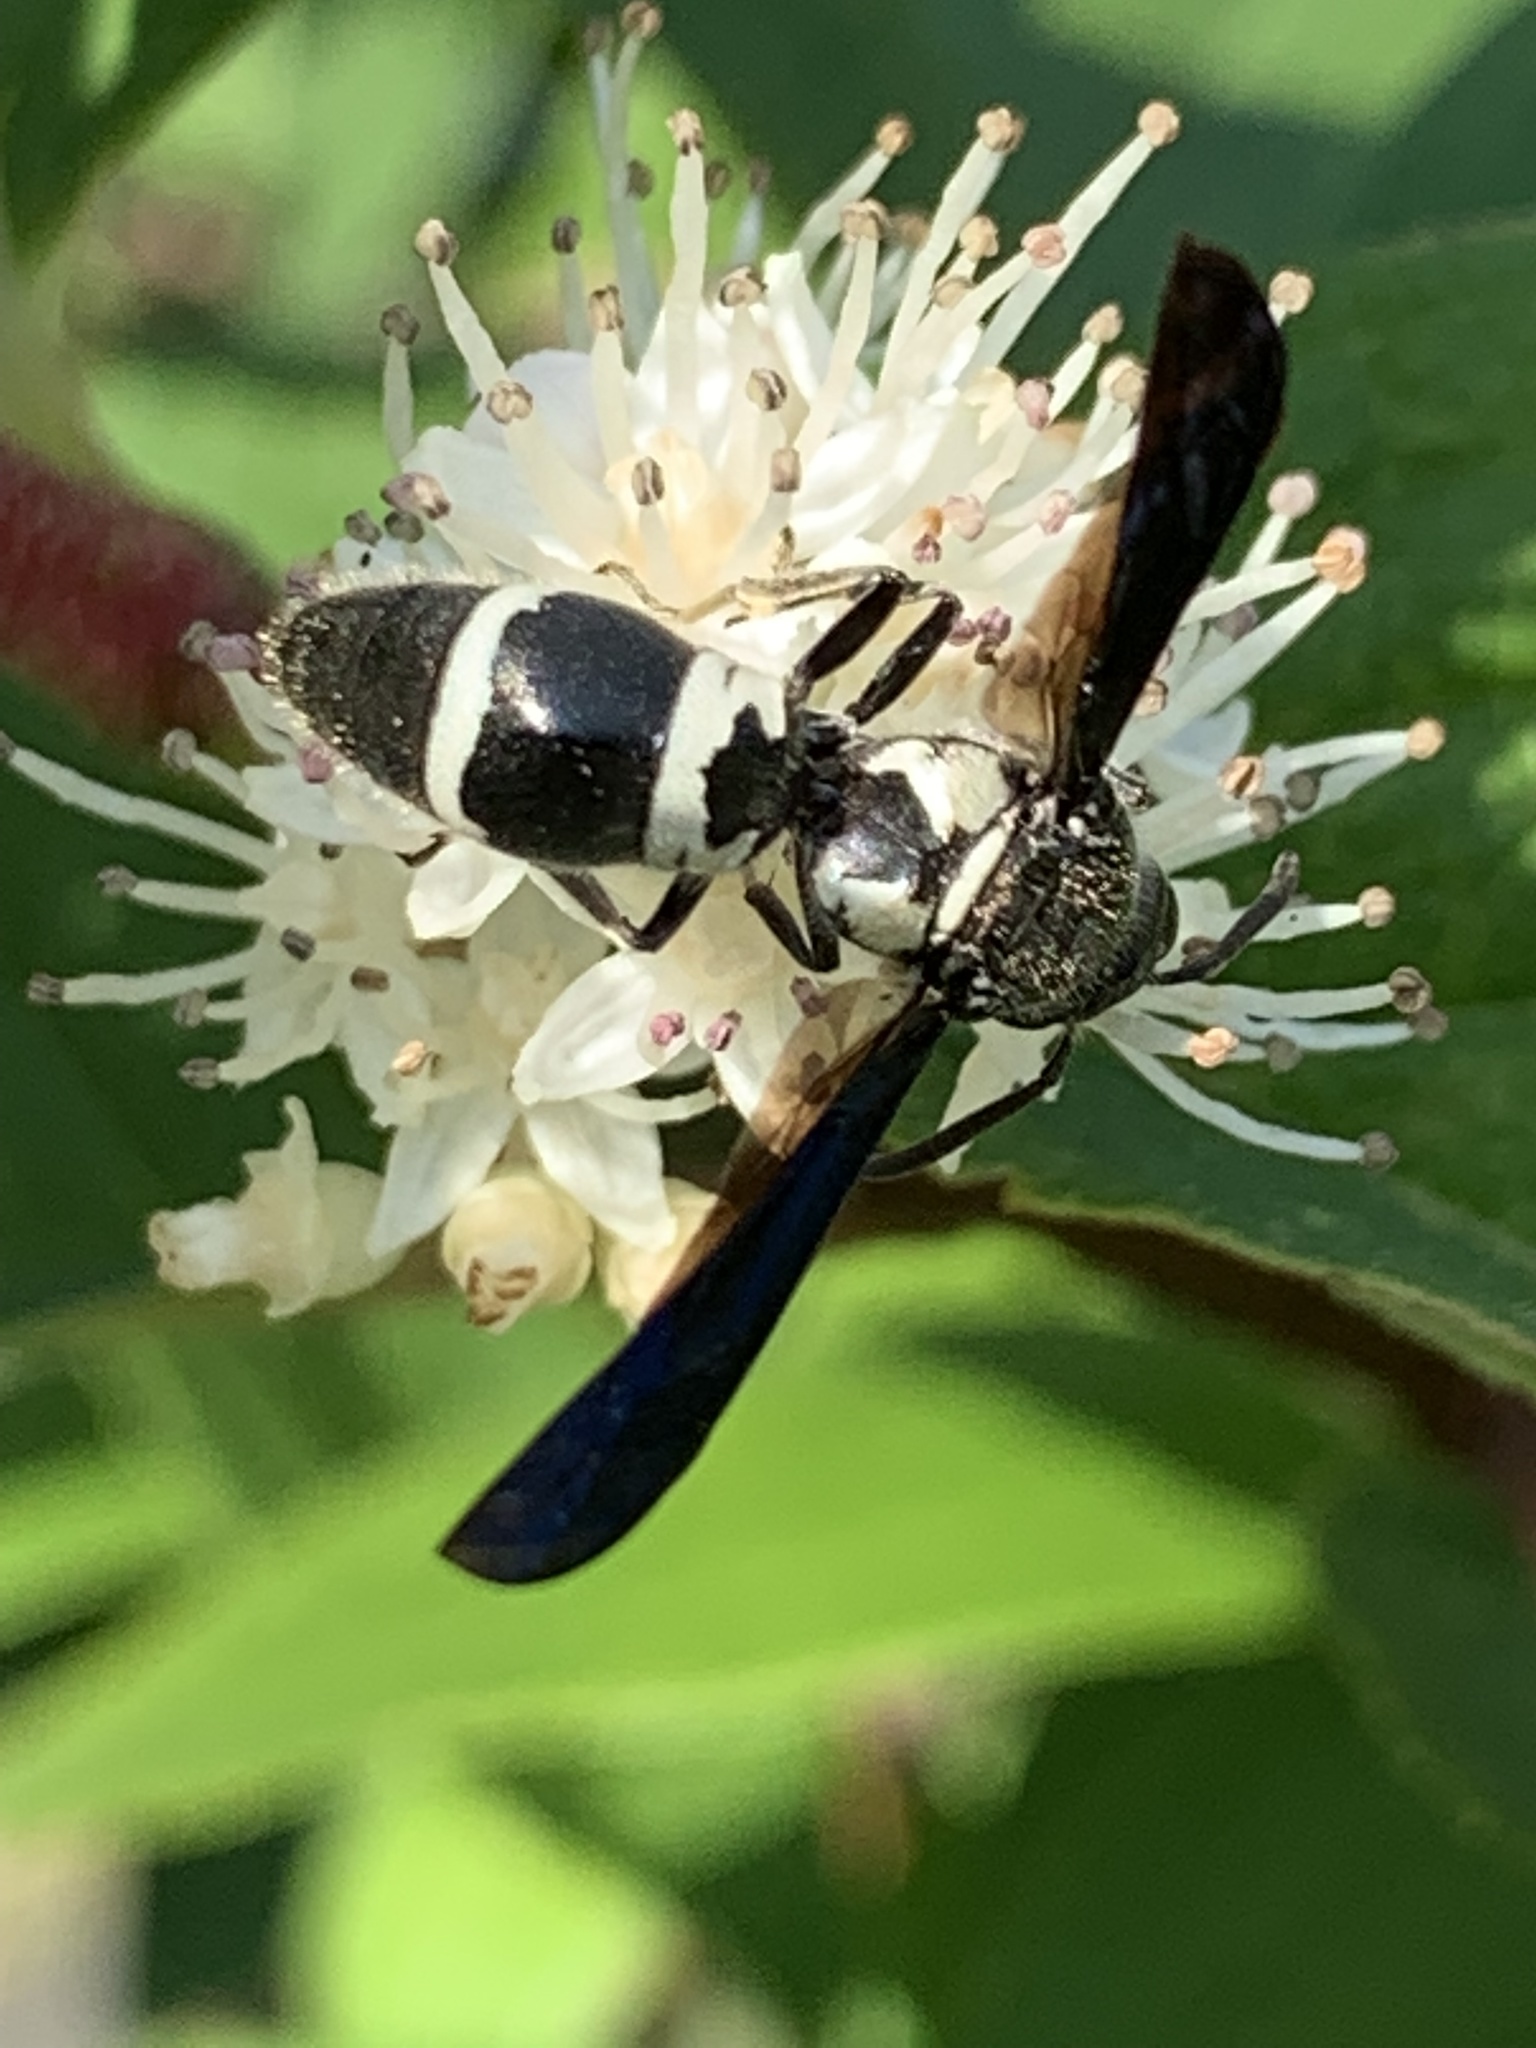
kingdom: Animalia
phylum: Arthropoda
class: Insecta
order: Hymenoptera
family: Eumenidae
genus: Pseudodynerus
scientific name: Pseudodynerus quadrisectus
